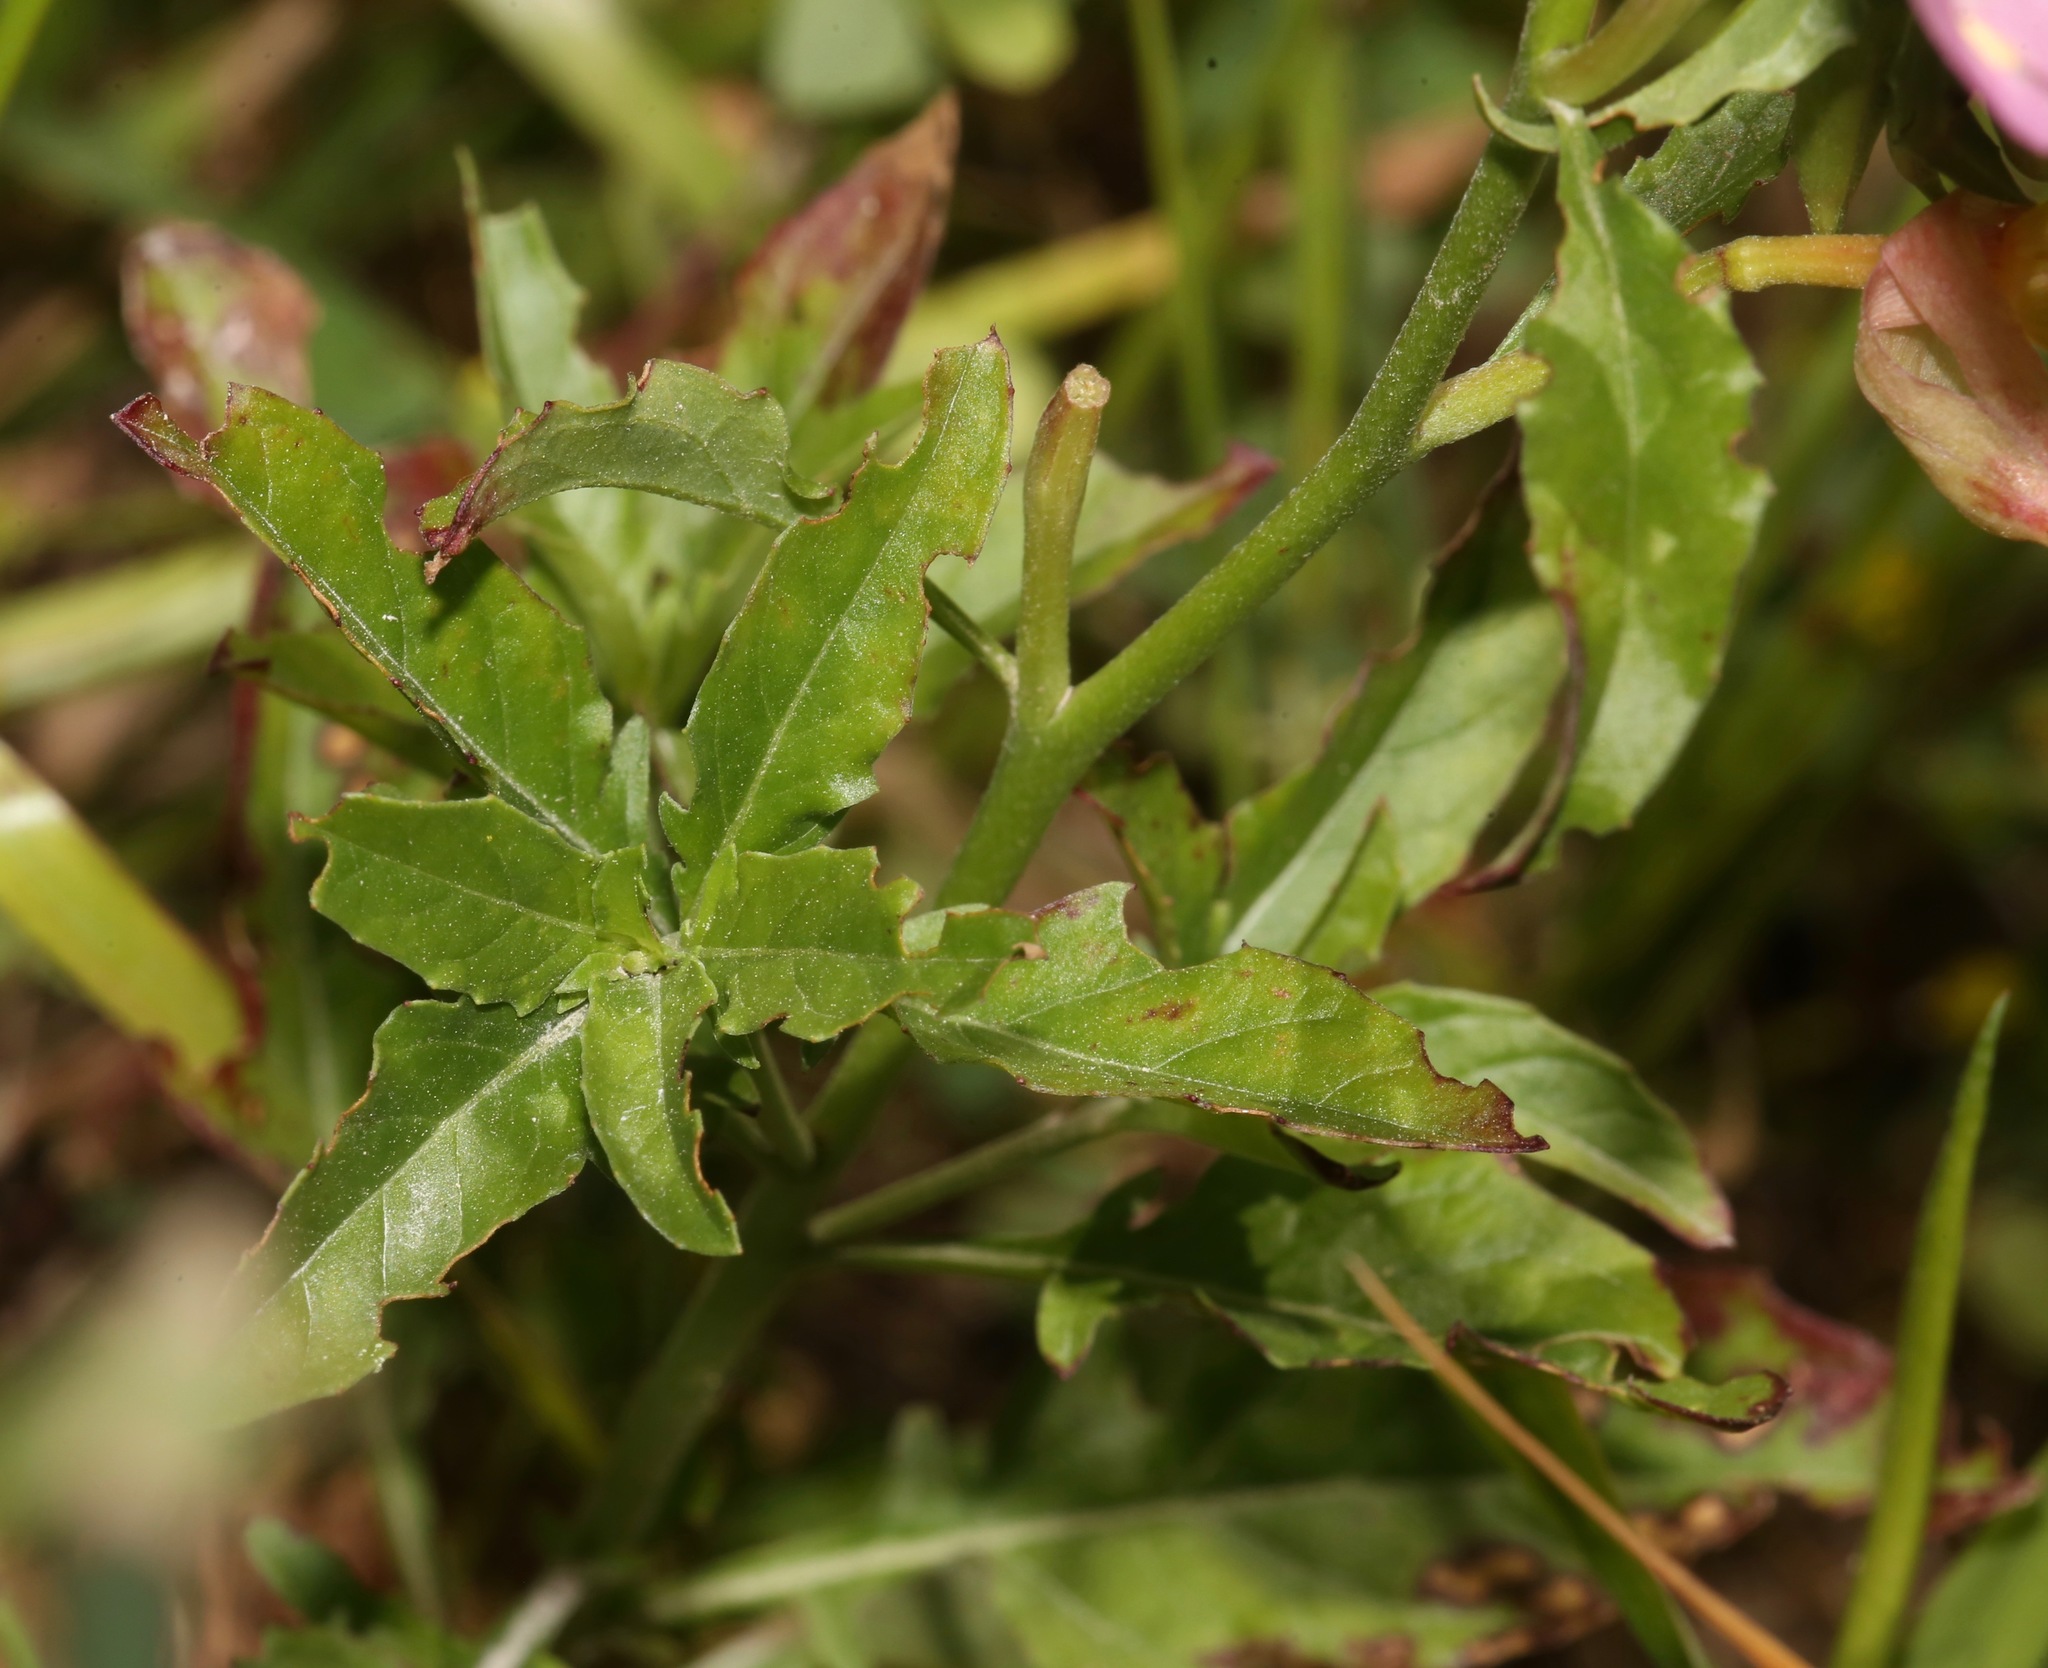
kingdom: Plantae
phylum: Tracheophyta
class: Magnoliopsida
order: Myrtales
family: Onagraceae
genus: Oenothera
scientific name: Oenothera speciosa
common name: White evening-primrose
